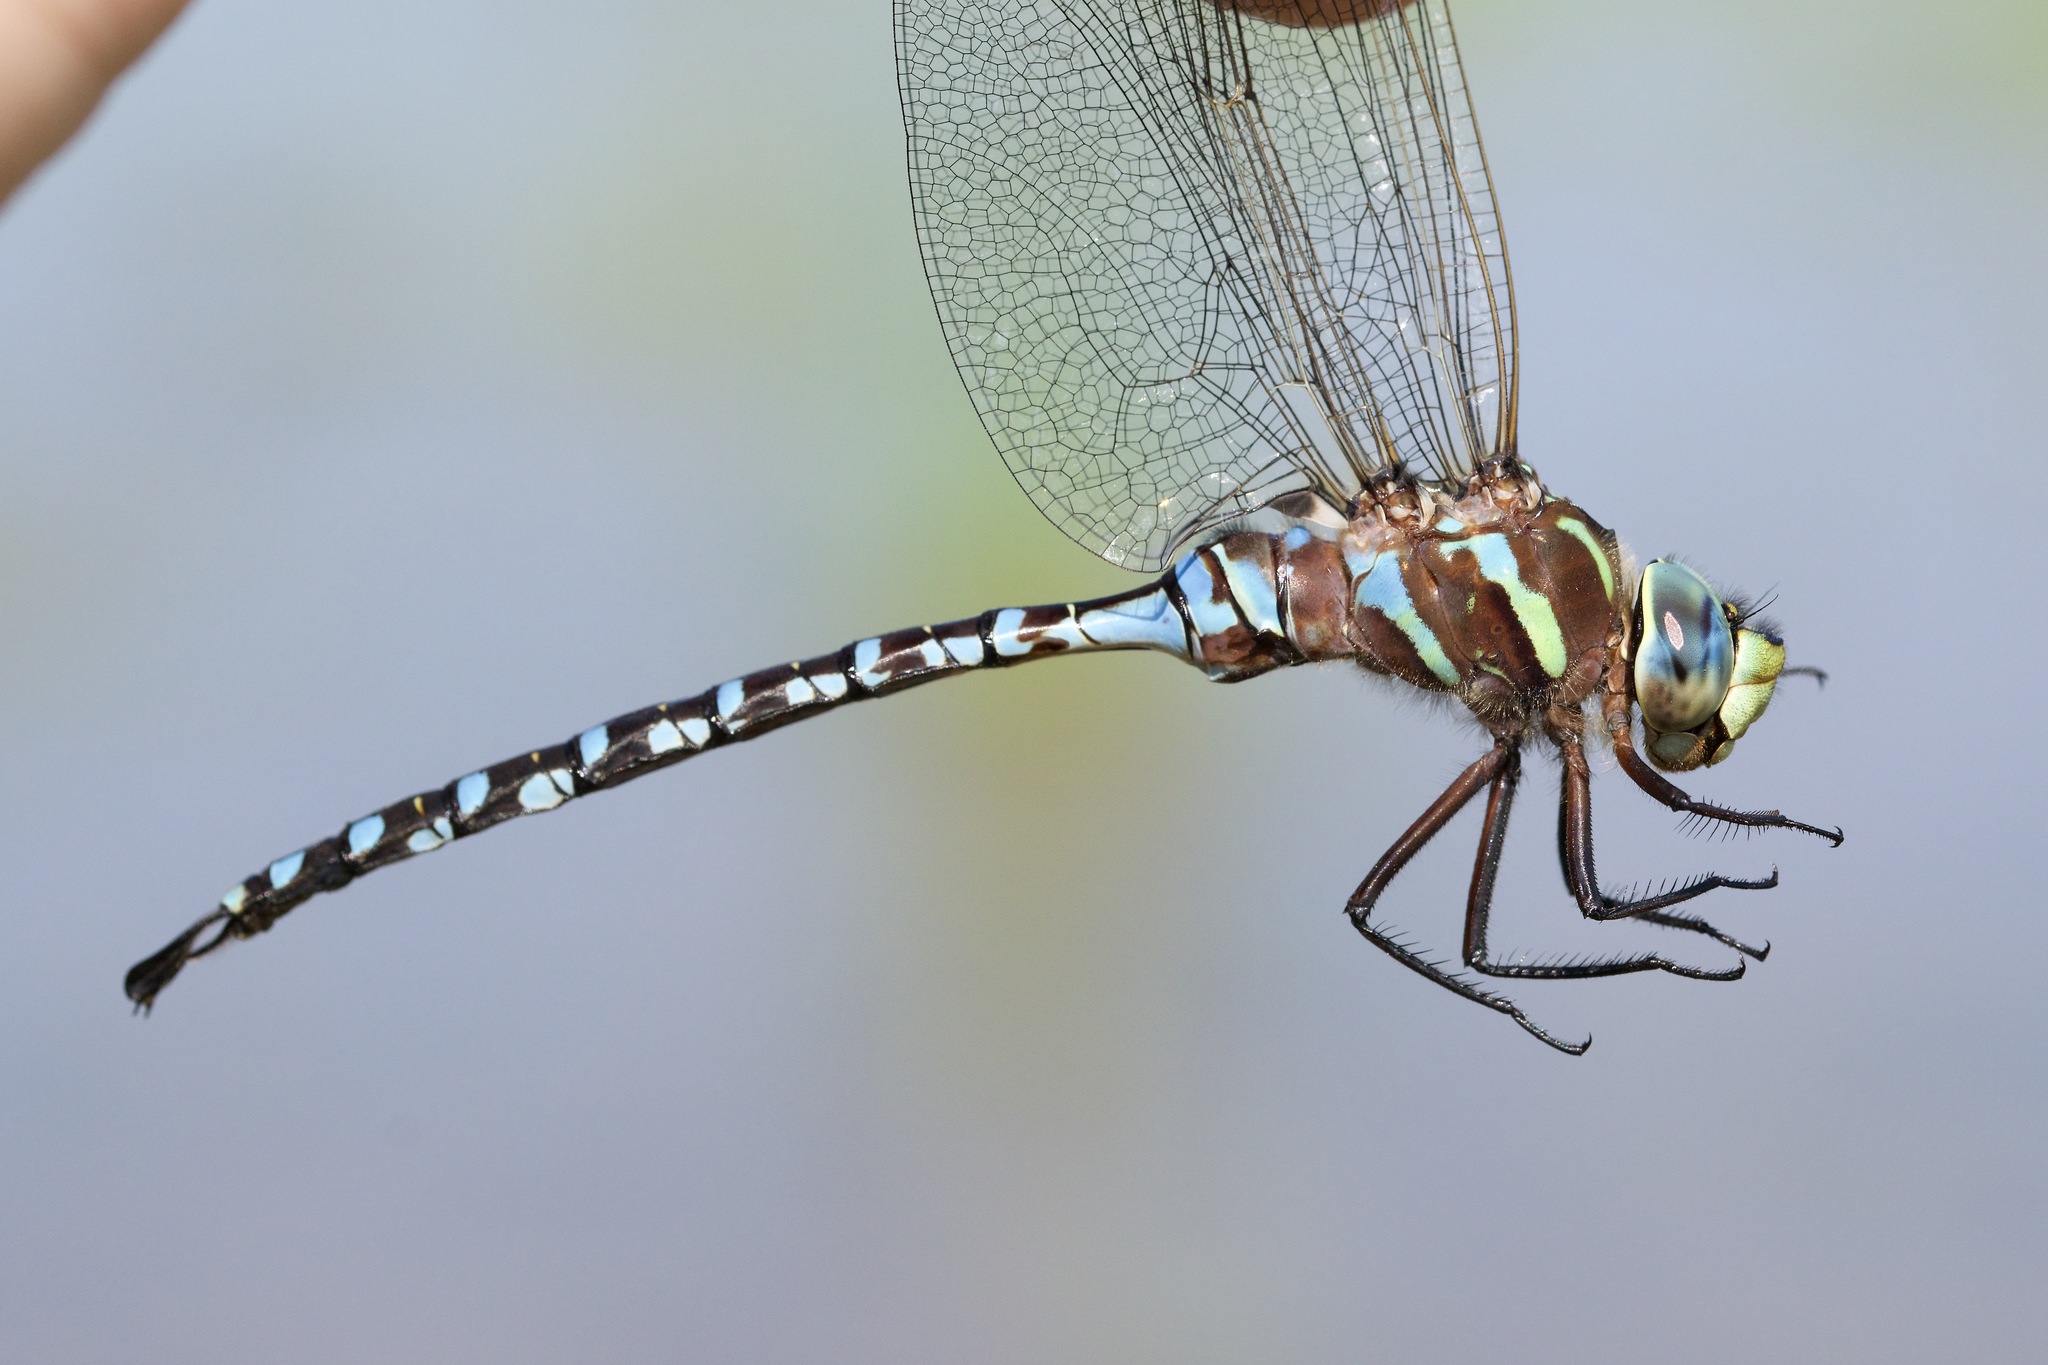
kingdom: Animalia
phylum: Arthropoda
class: Insecta
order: Odonata
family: Aeshnidae
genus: Aeshna
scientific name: Aeshna constricta
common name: Lance-tipped darner
